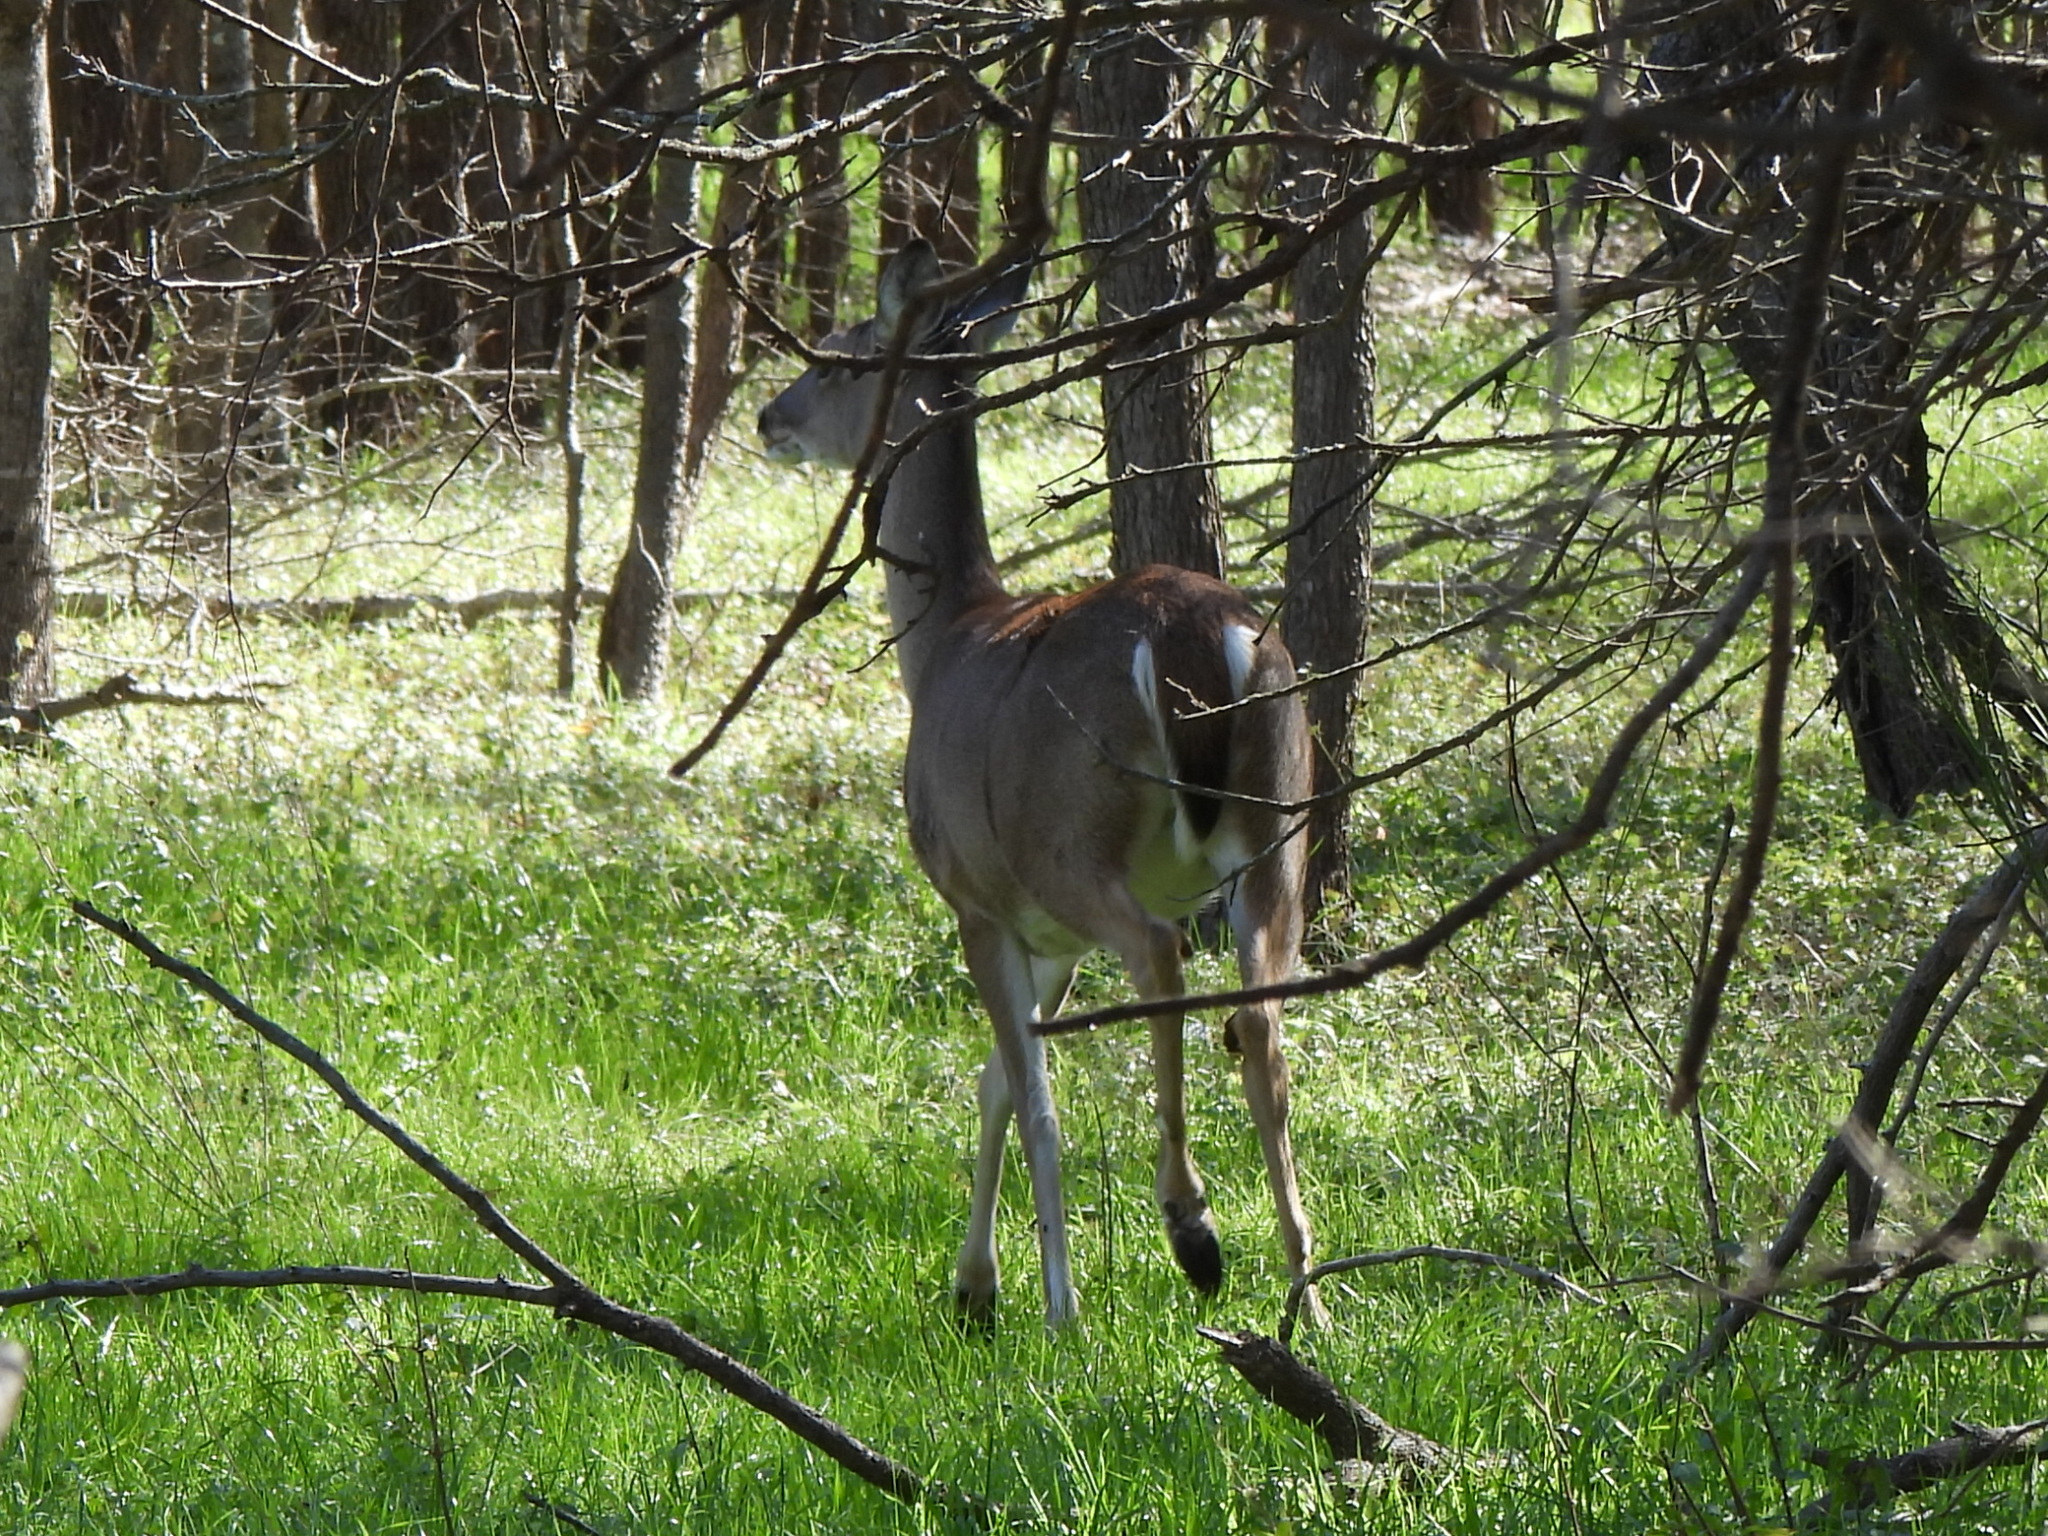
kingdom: Animalia
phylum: Chordata
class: Mammalia
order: Artiodactyla
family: Cervidae
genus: Odocoileus
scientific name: Odocoileus virginianus
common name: White-tailed deer
